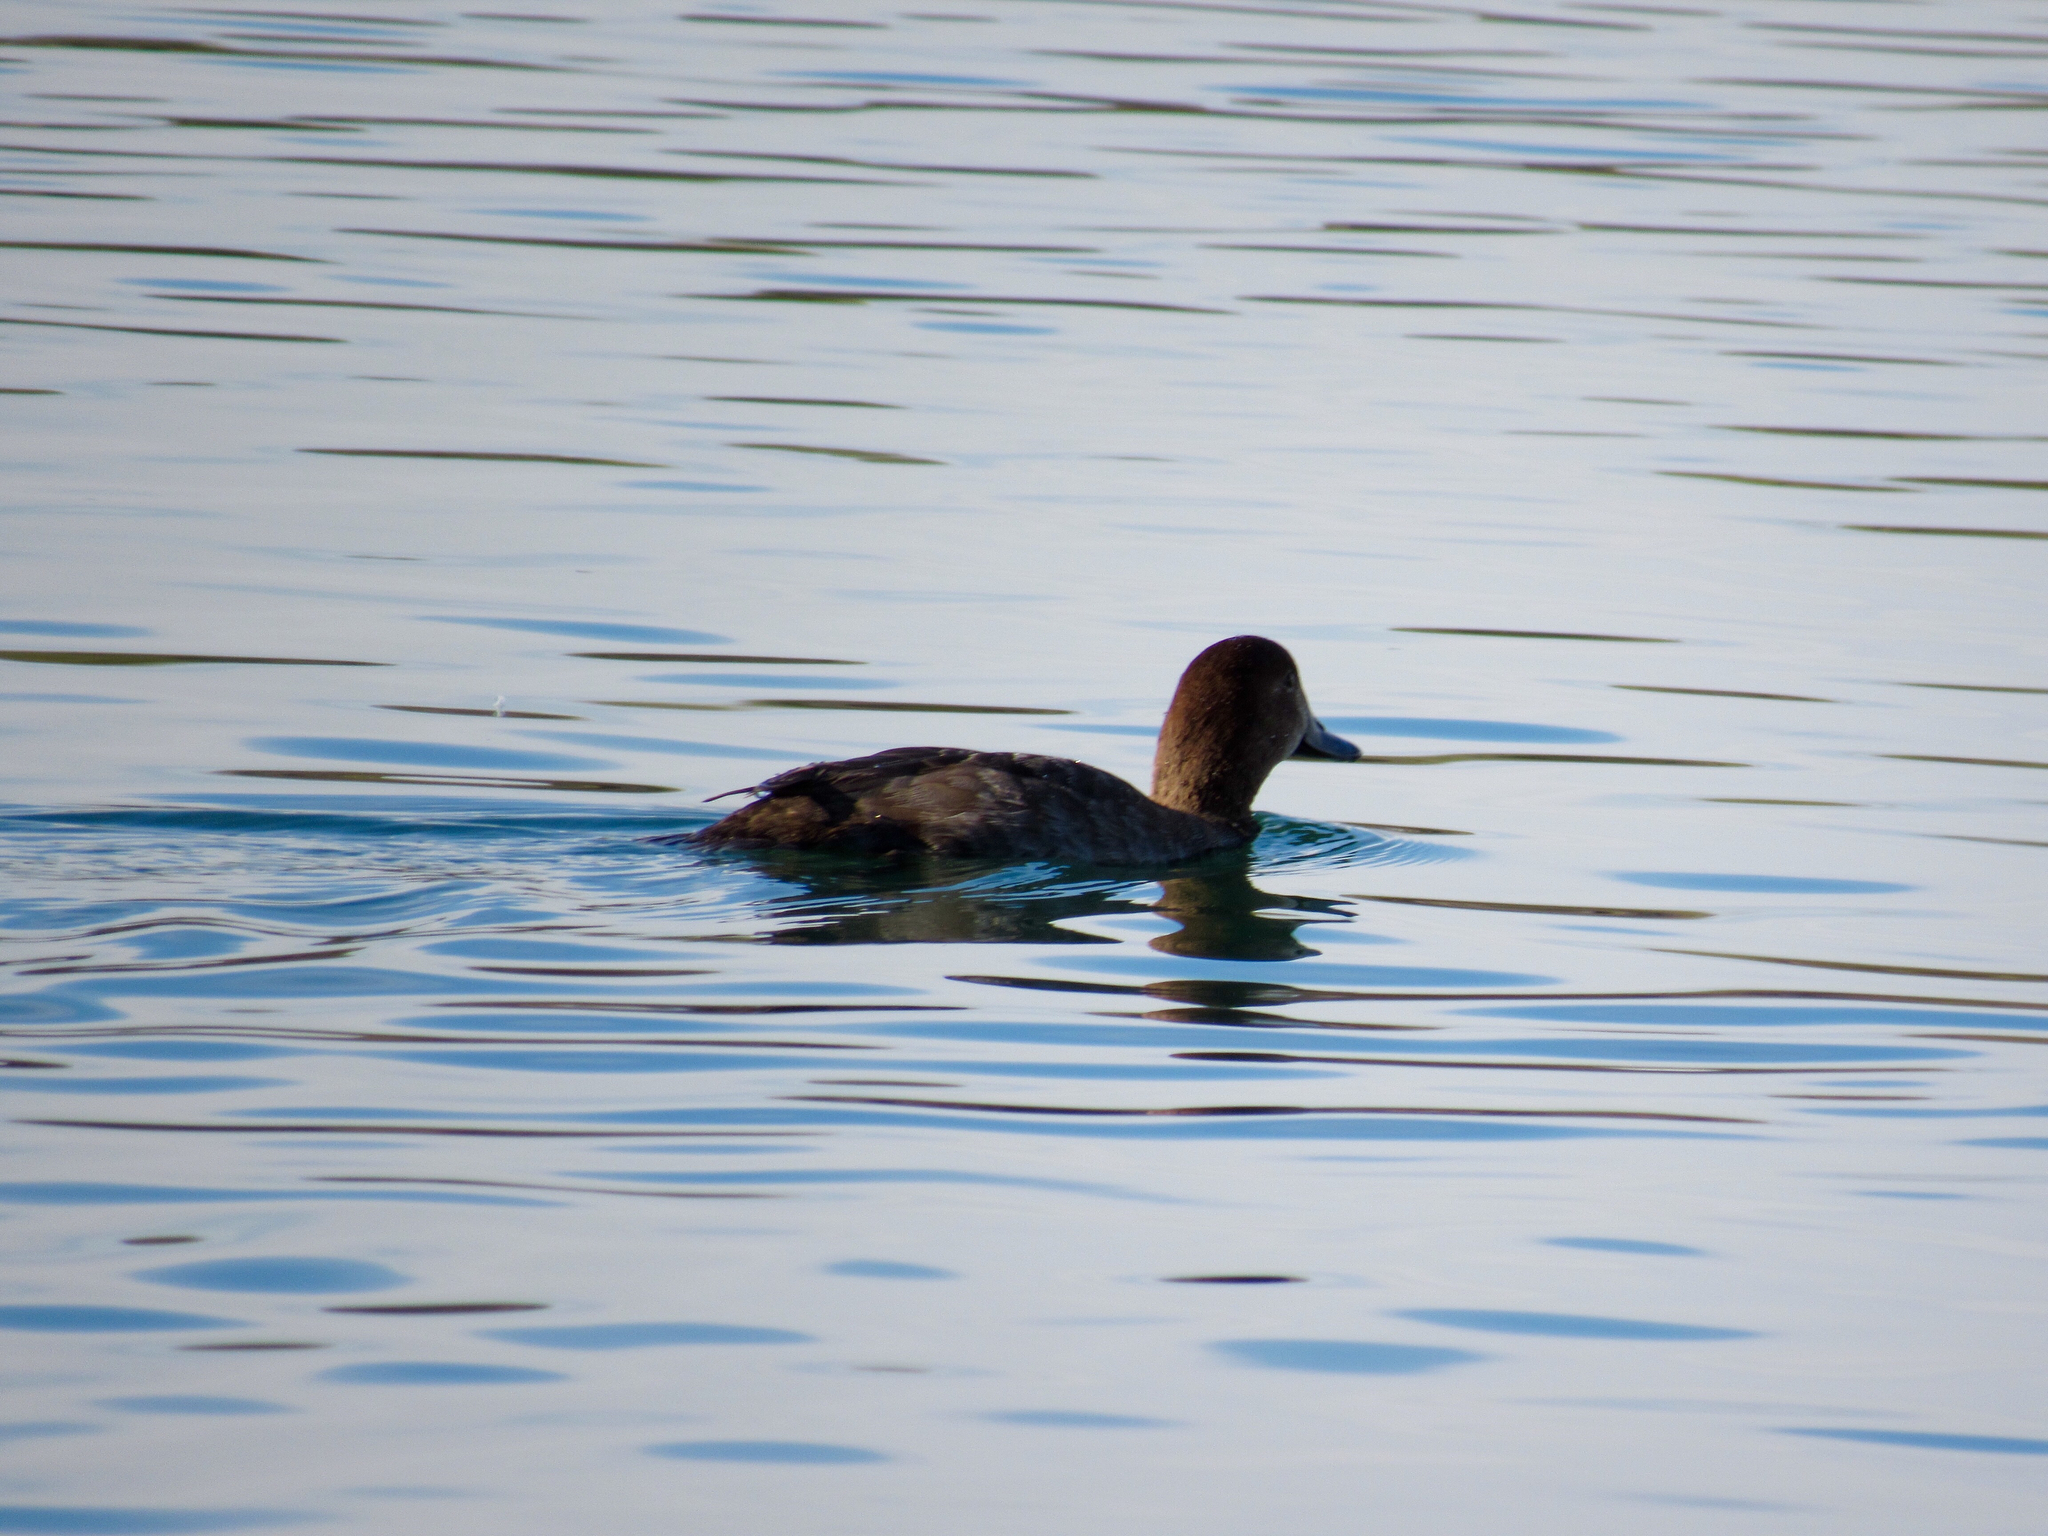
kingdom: Animalia
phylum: Chordata
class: Aves
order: Anseriformes
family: Anatidae
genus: Aythya
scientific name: Aythya americana
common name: Redhead
